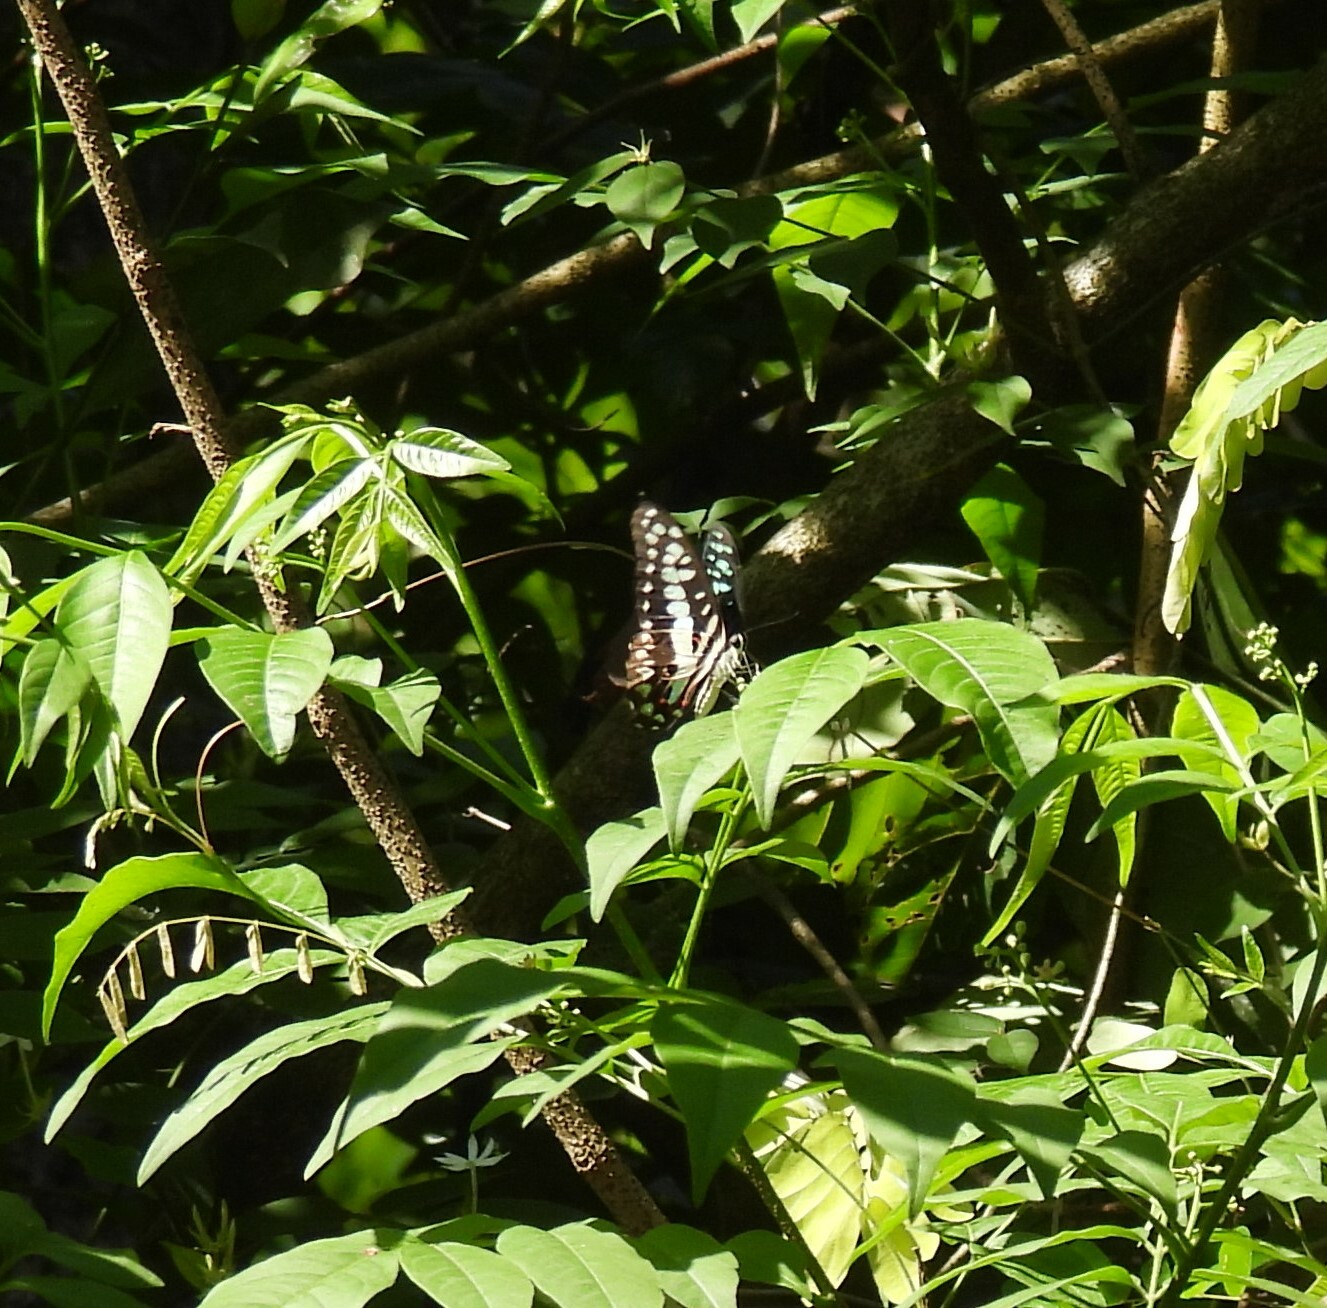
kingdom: Animalia
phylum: Arthropoda
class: Insecta
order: Lepidoptera
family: Papilionidae
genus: Graphium
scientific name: Graphium doson
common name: Common jay
